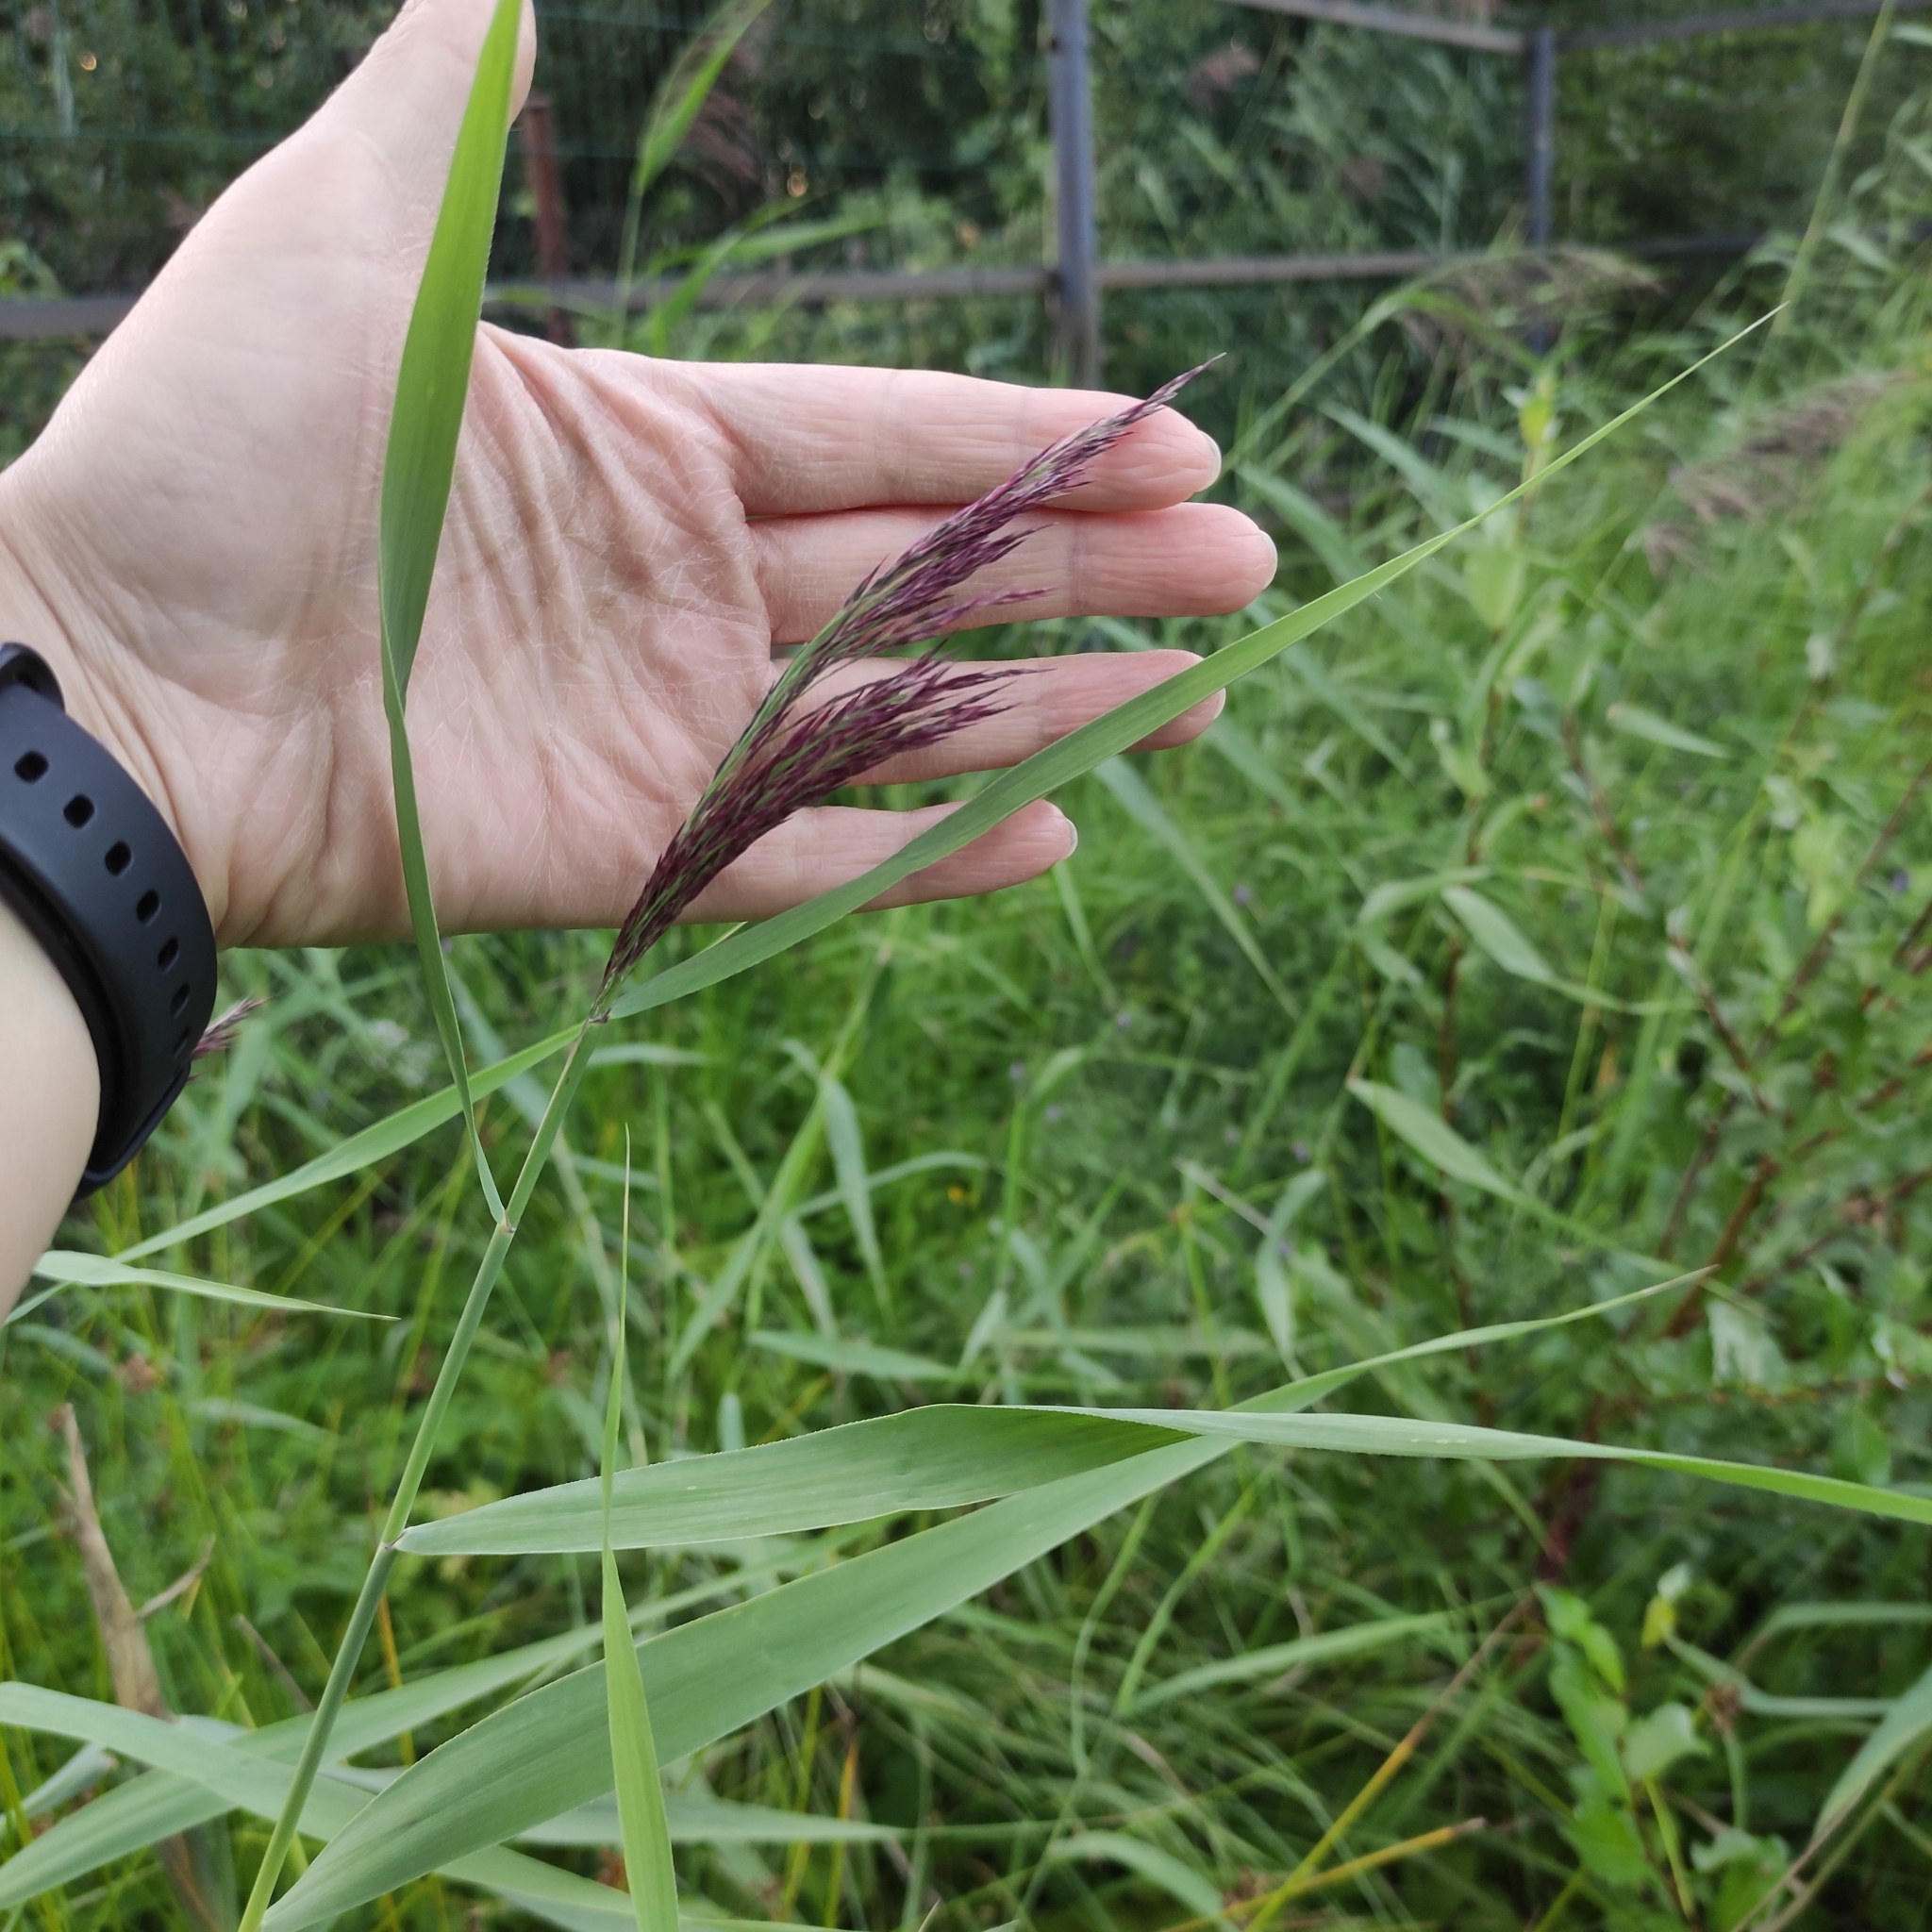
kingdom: Plantae
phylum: Tracheophyta
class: Liliopsida
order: Poales
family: Poaceae
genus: Phragmites
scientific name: Phragmites australis
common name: Common reed
